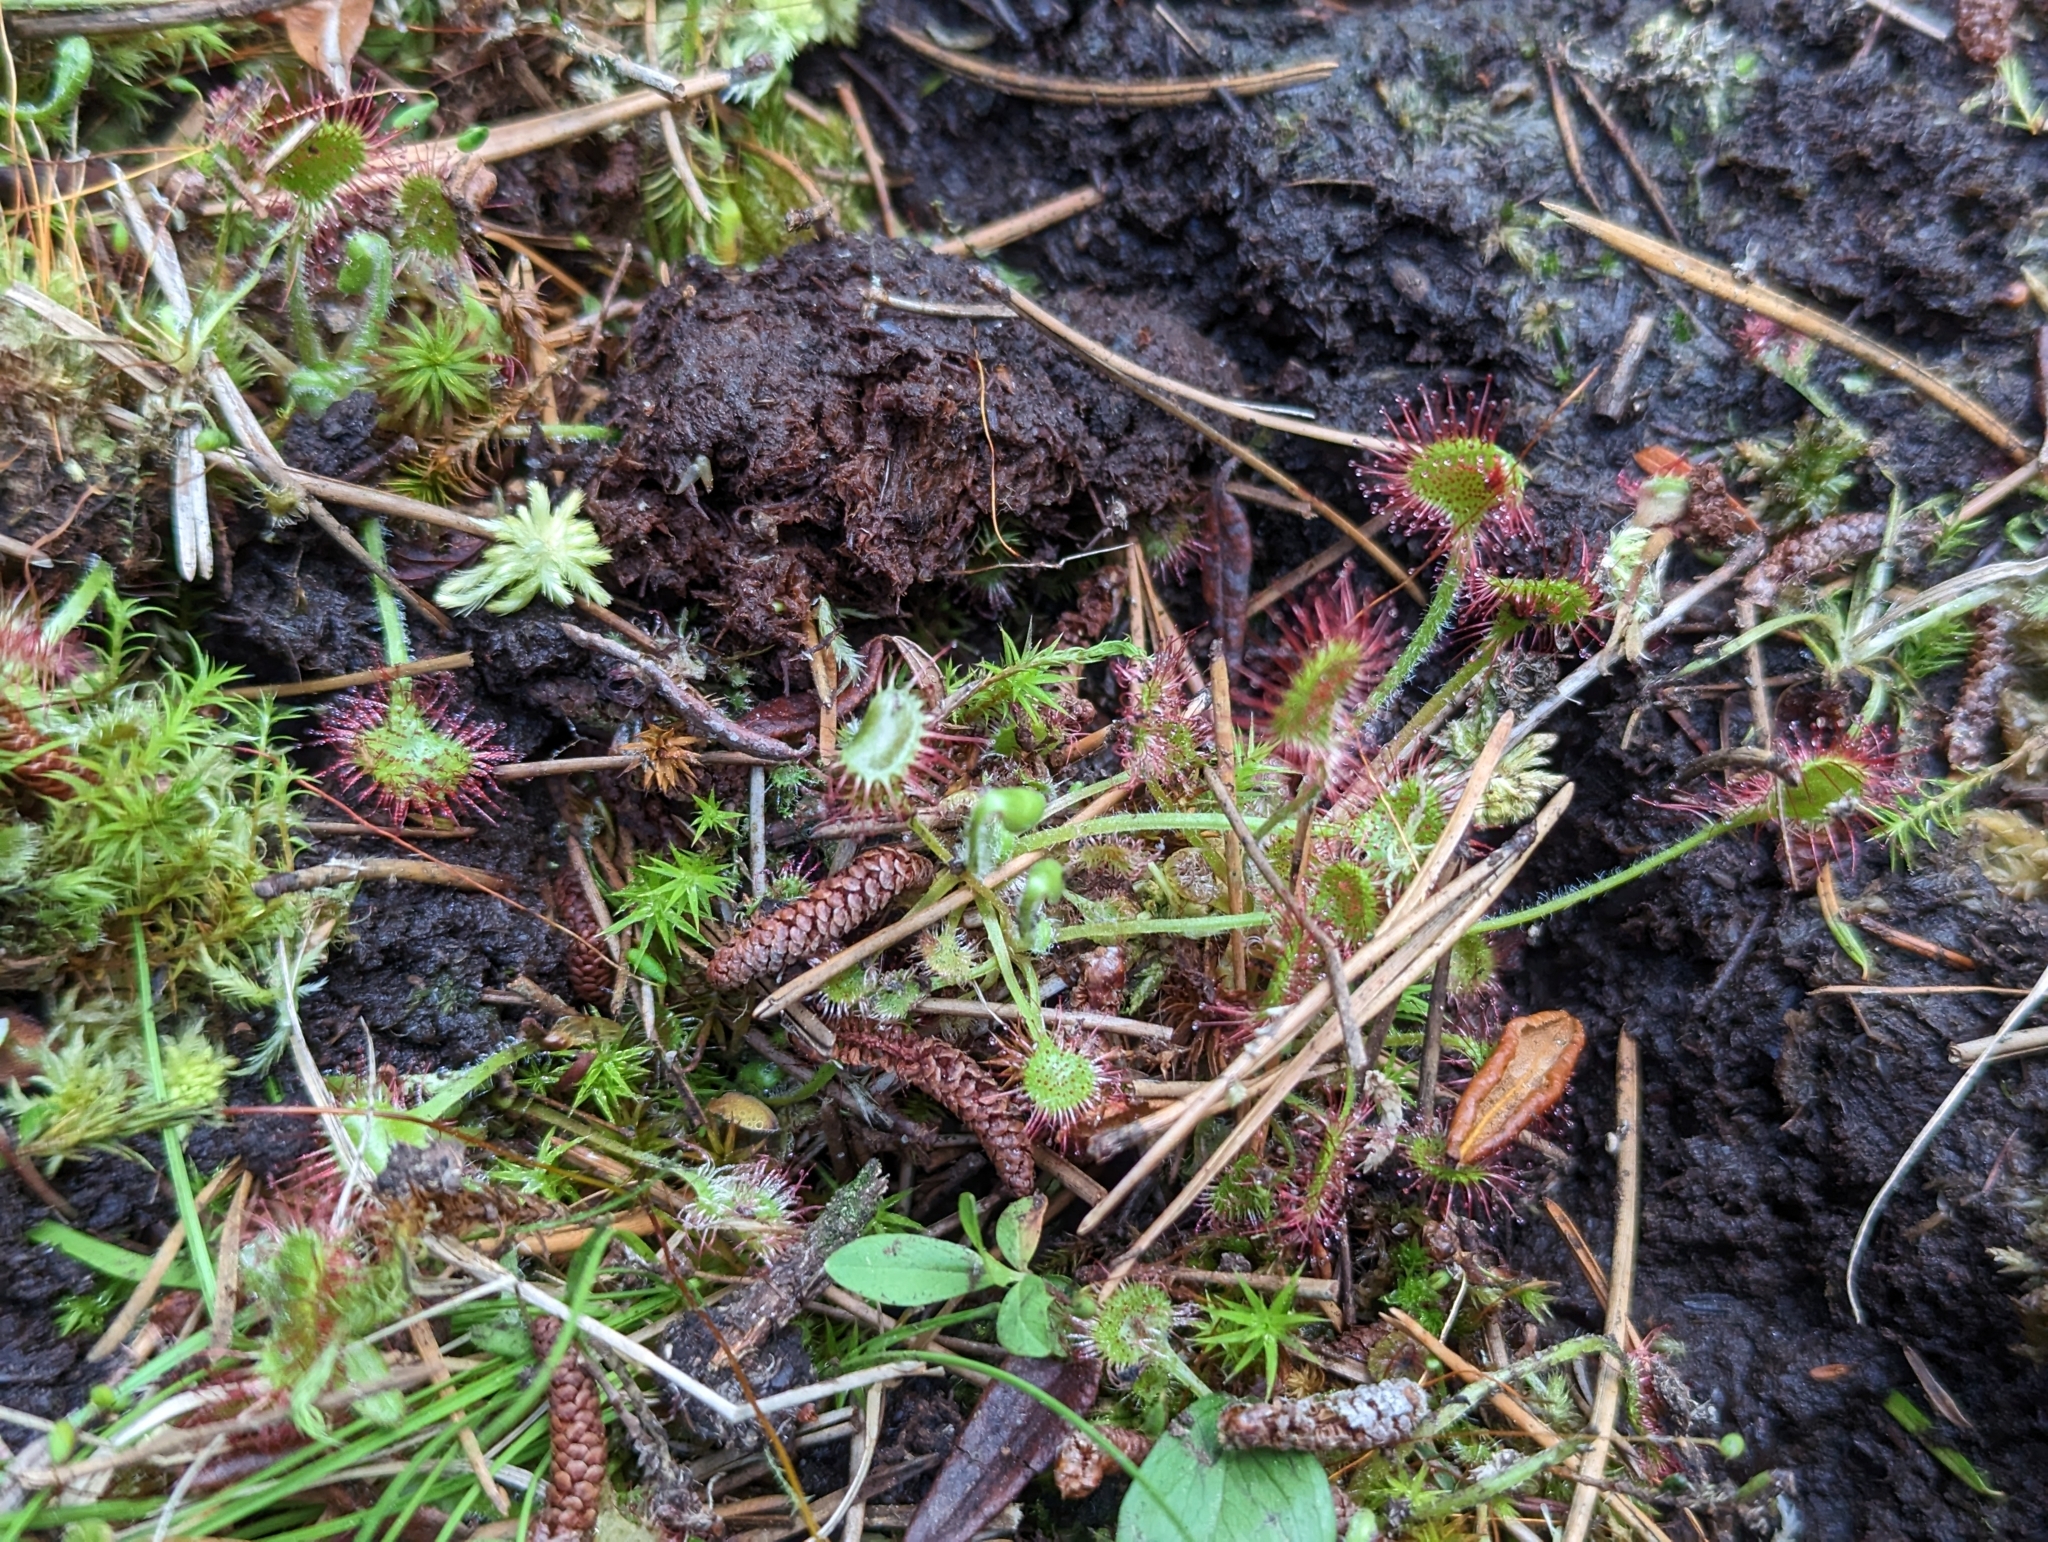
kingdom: Plantae
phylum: Tracheophyta
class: Magnoliopsida
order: Caryophyllales
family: Droseraceae
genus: Drosera
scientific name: Drosera rotundifolia
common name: Round-leaved sundew
